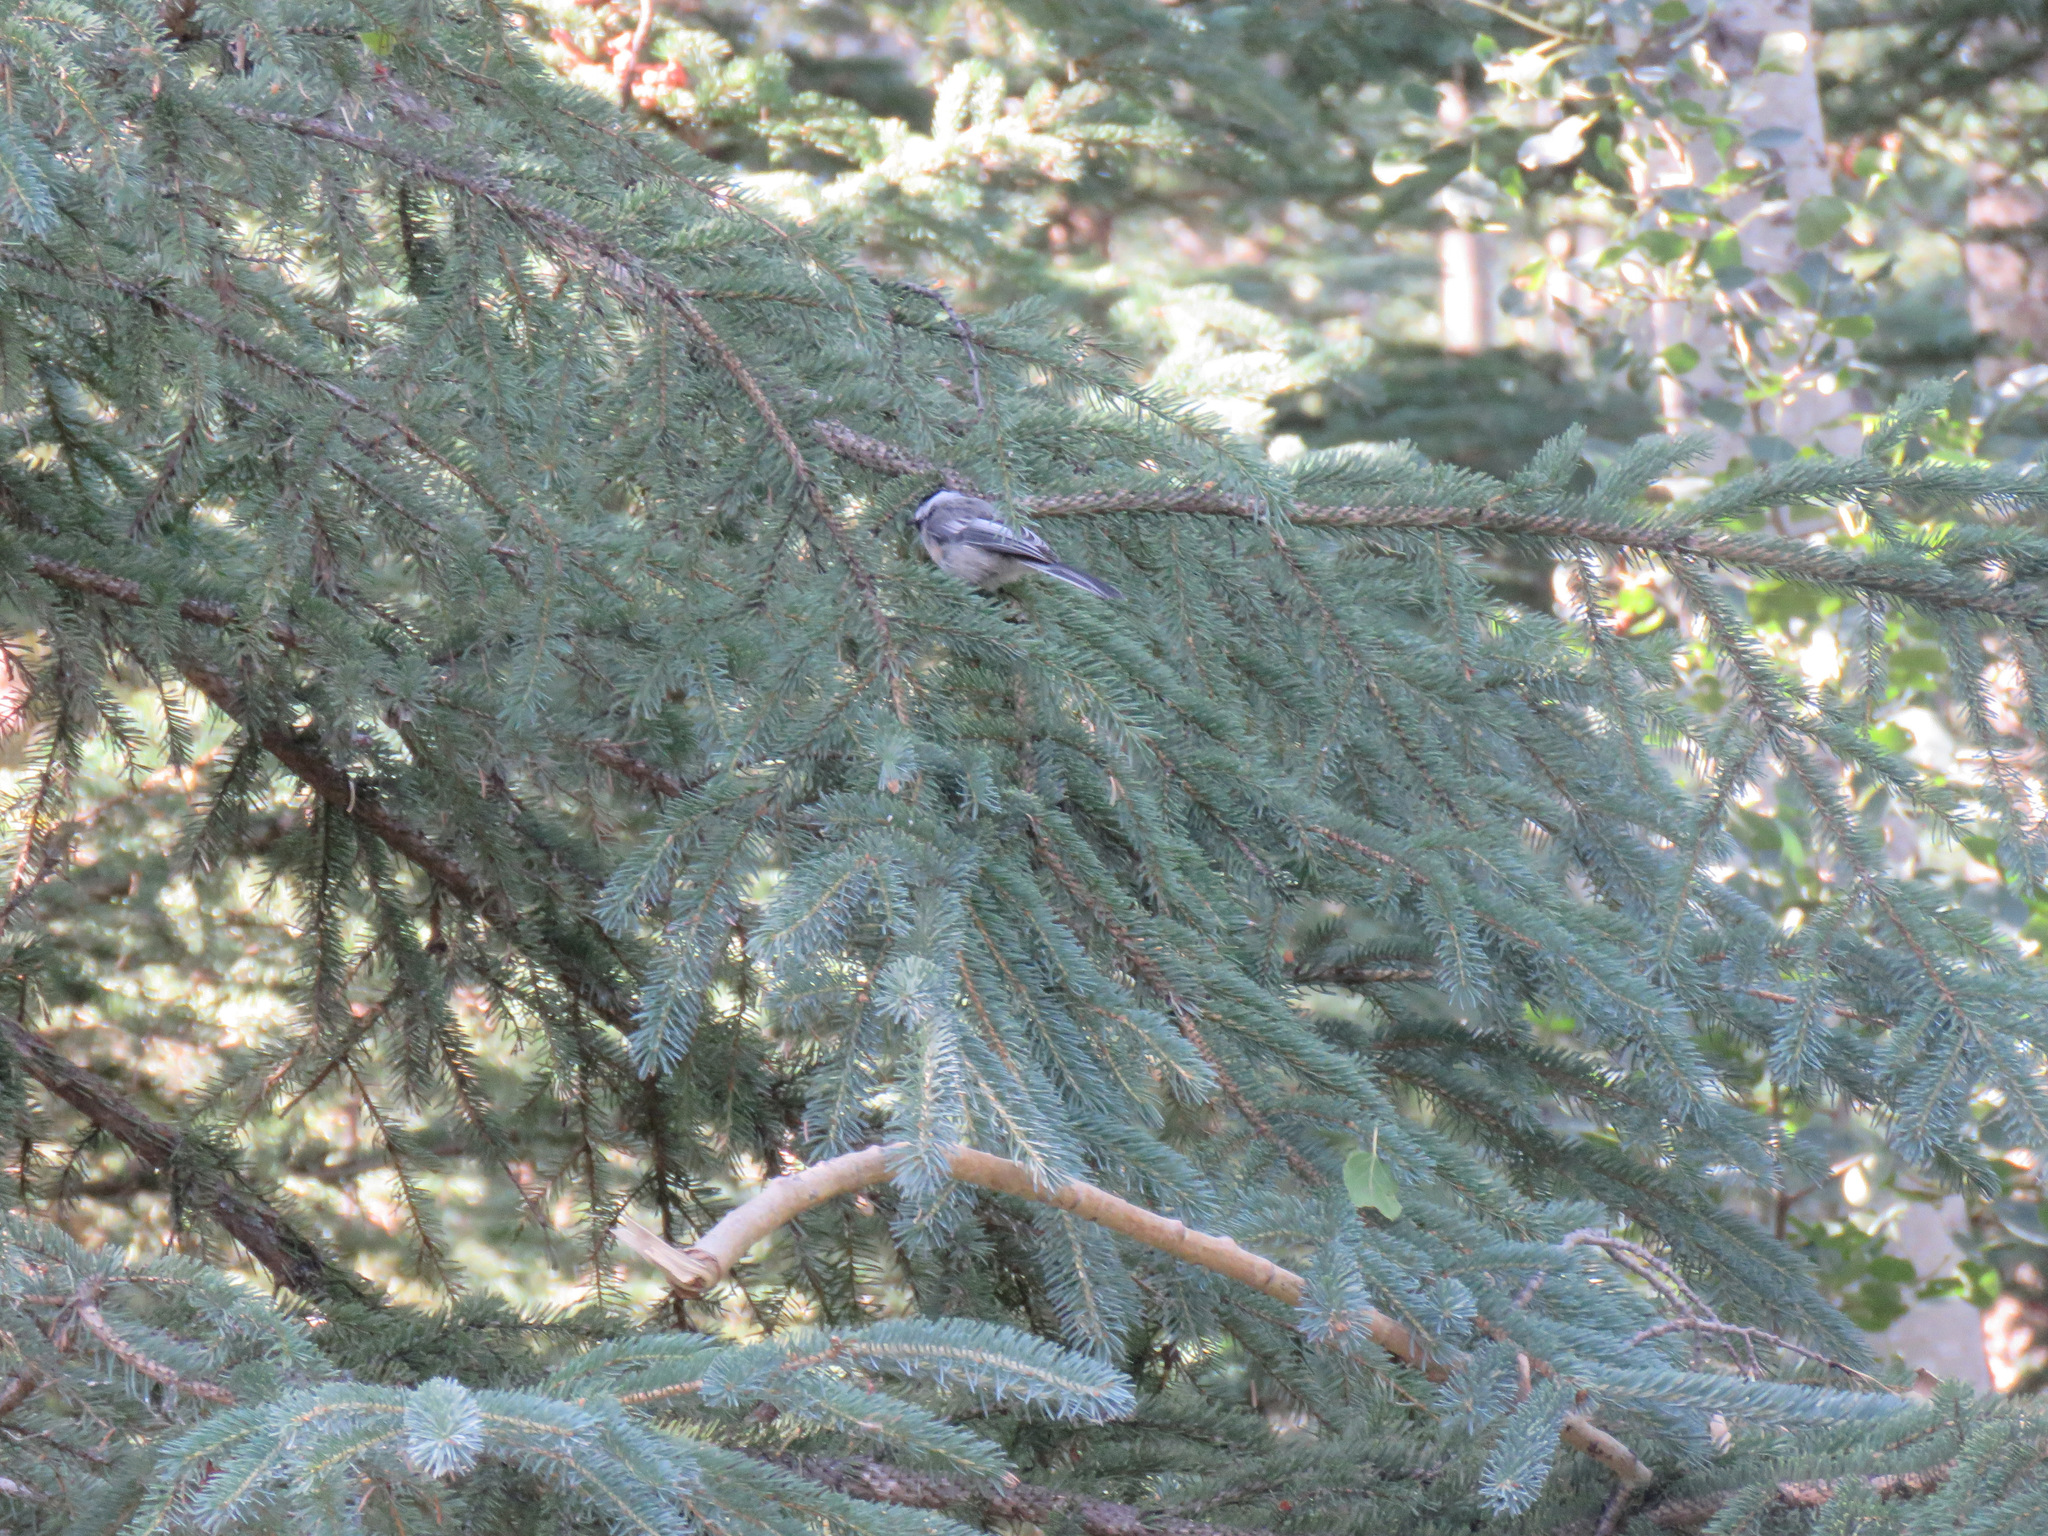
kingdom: Animalia
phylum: Chordata
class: Aves
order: Passeriformes
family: Paridae
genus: Poecile
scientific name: Poecile atricapillus
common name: Black-capped chickadee
